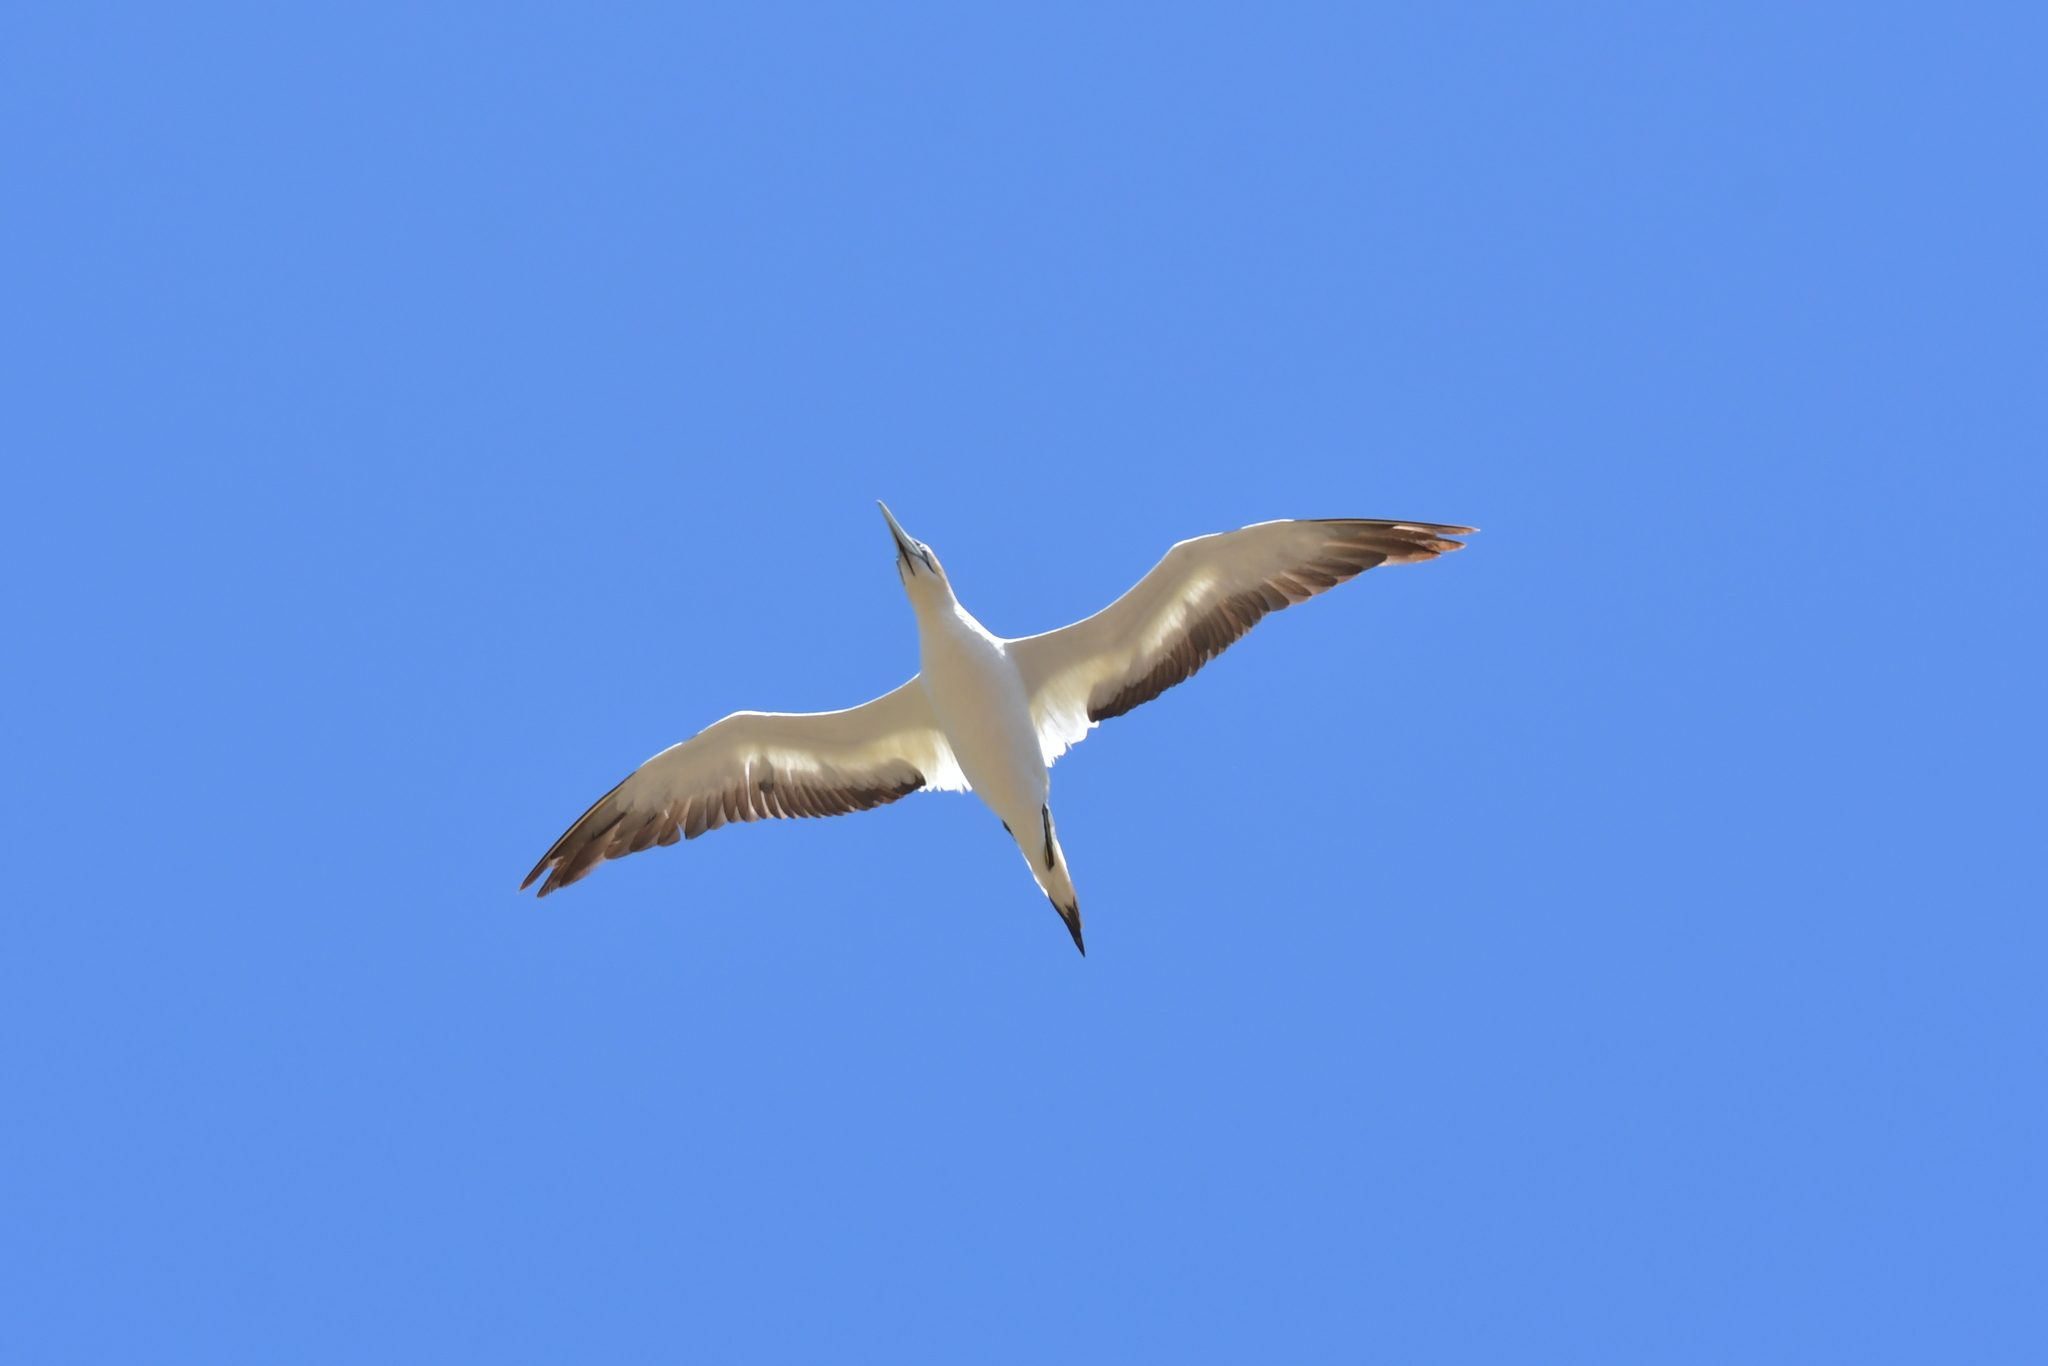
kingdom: Animalia
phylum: Chordata
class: Aves
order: Suliformes
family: Sulidae
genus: Morus
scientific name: Morus serrator
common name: Australasian gannet
